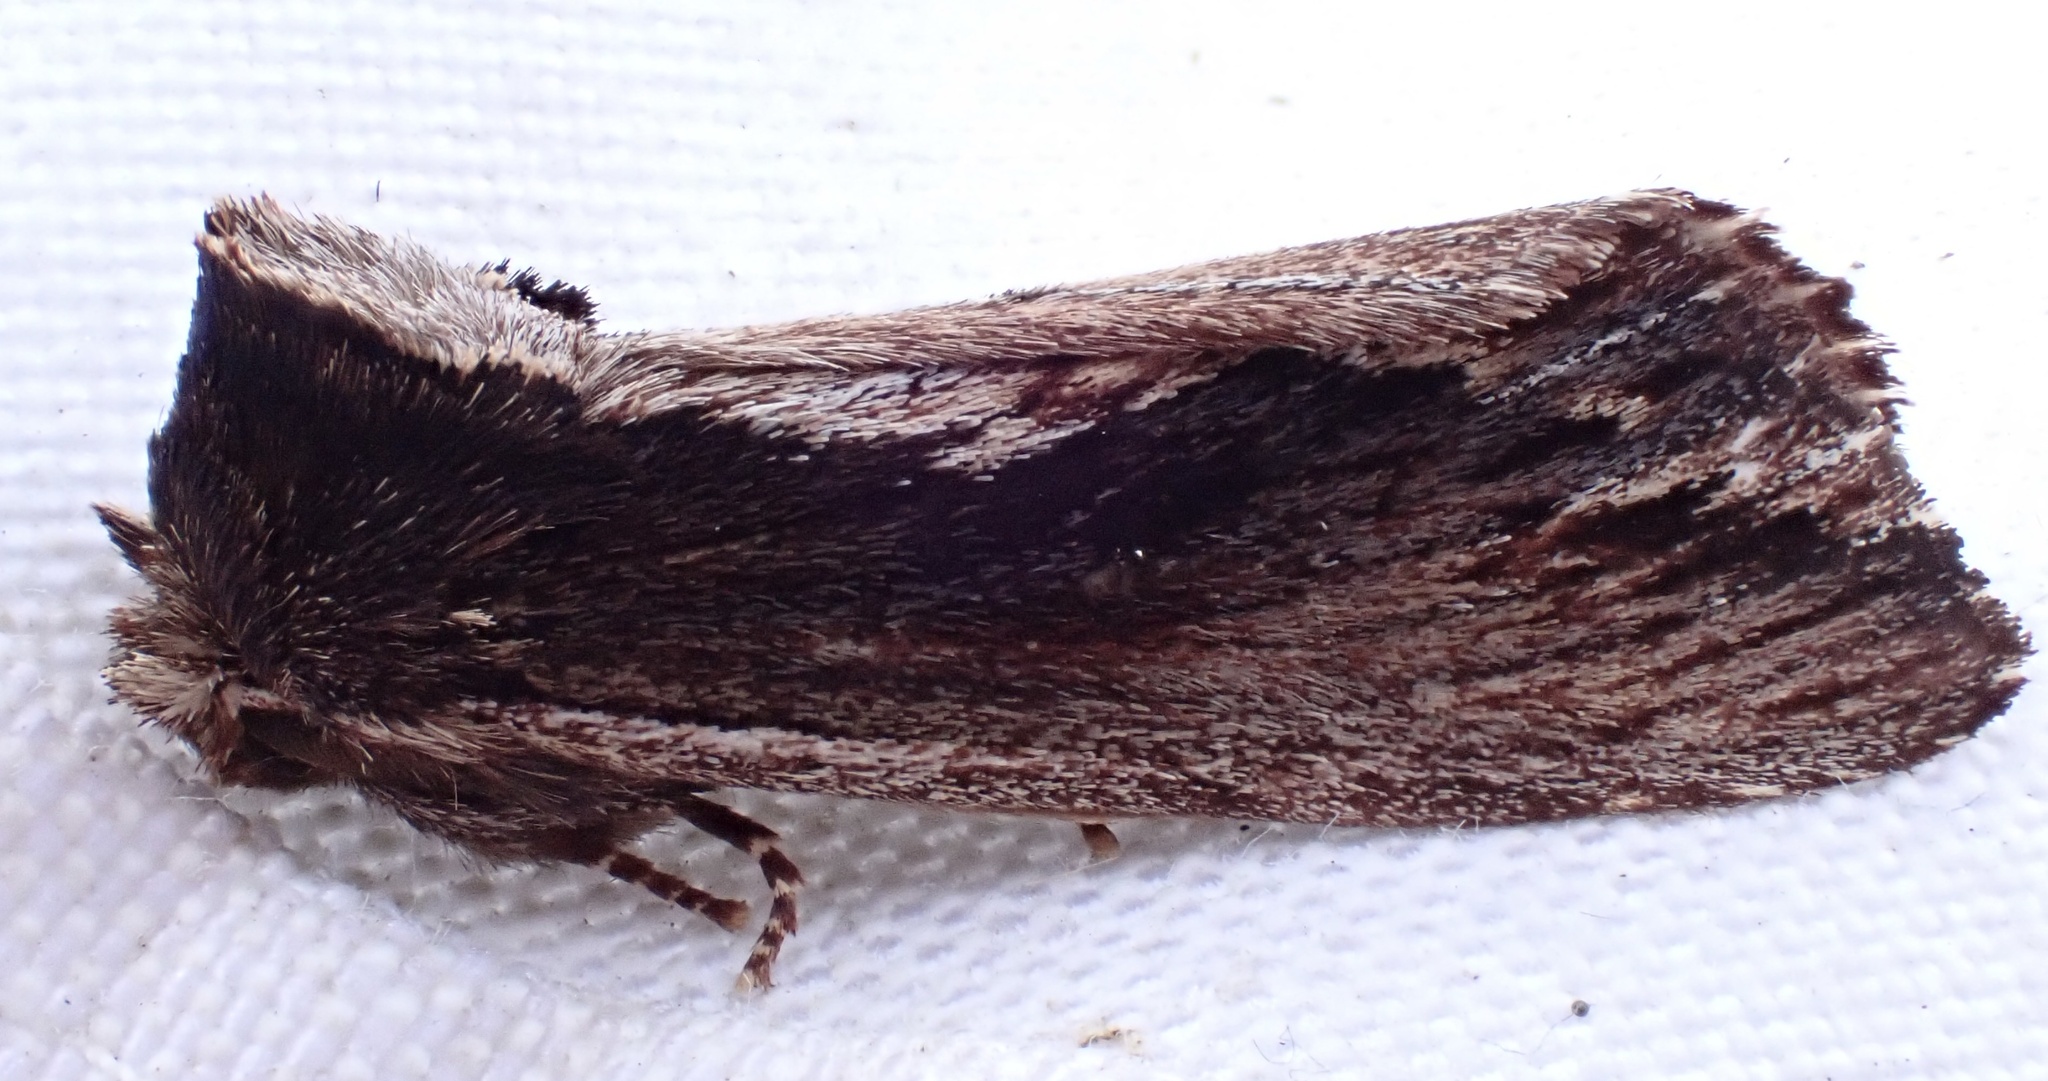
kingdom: Animalia
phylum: Arthropoda
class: Insecta
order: Lepidoptera
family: Notodontidae
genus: Hylaeora
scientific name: Hylaeora capucina
